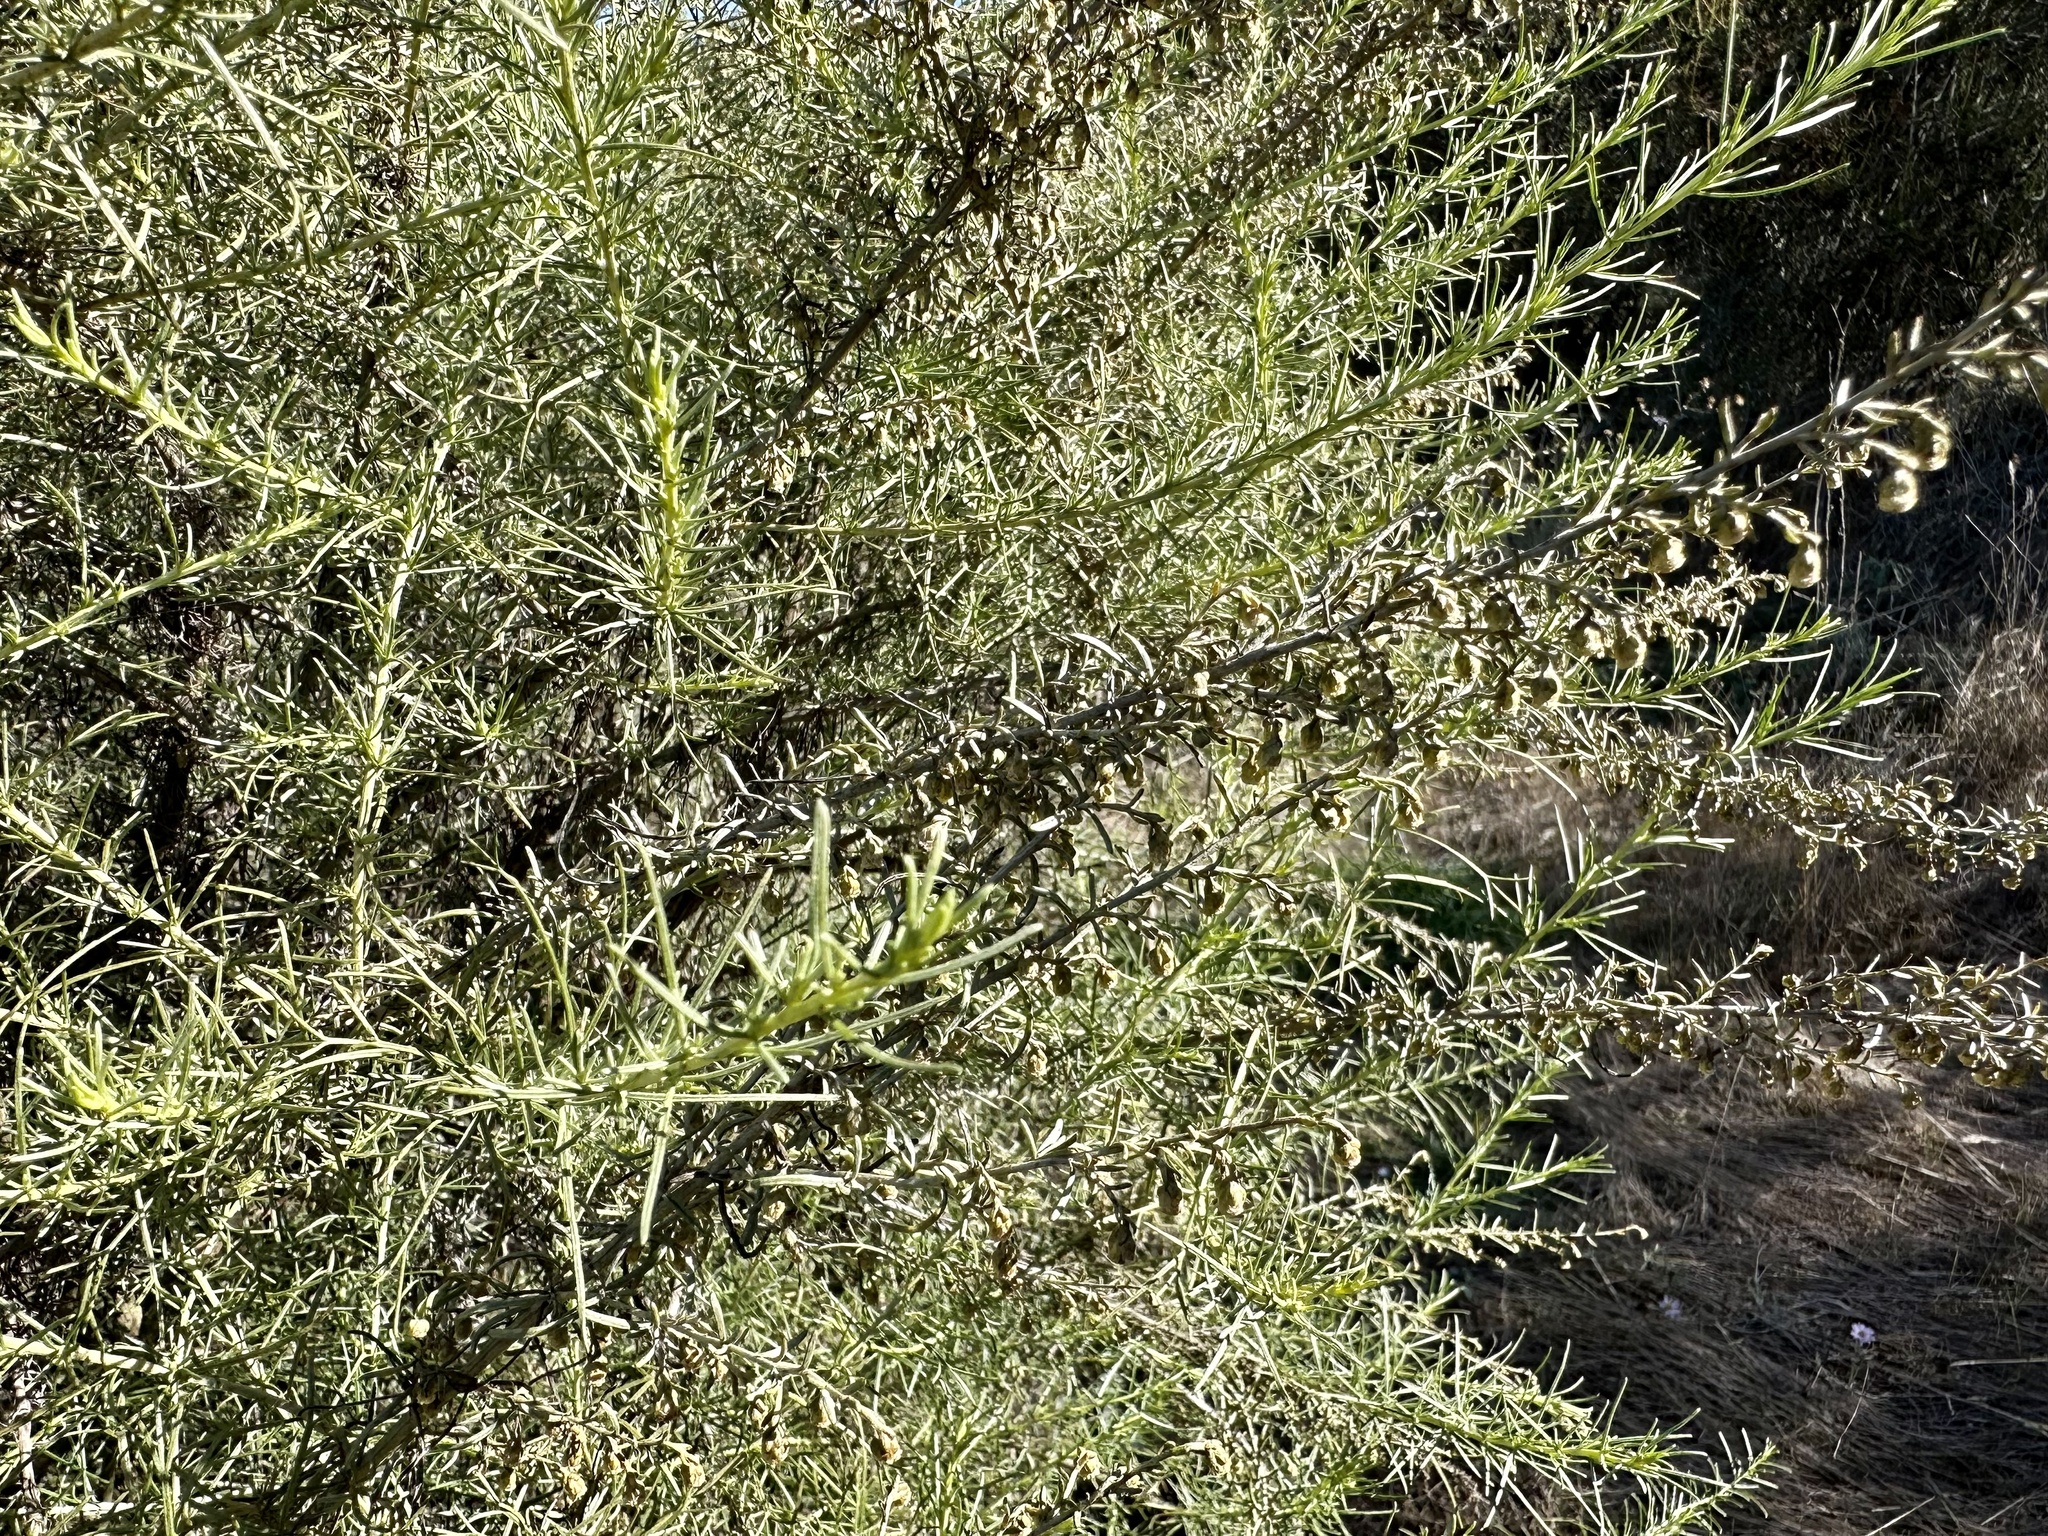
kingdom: Plantae
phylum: Tracheophyta
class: Magnoliopsida
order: Asterales
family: Asteraceae
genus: Artemisia
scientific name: Artemisia californica
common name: California sagebrush
